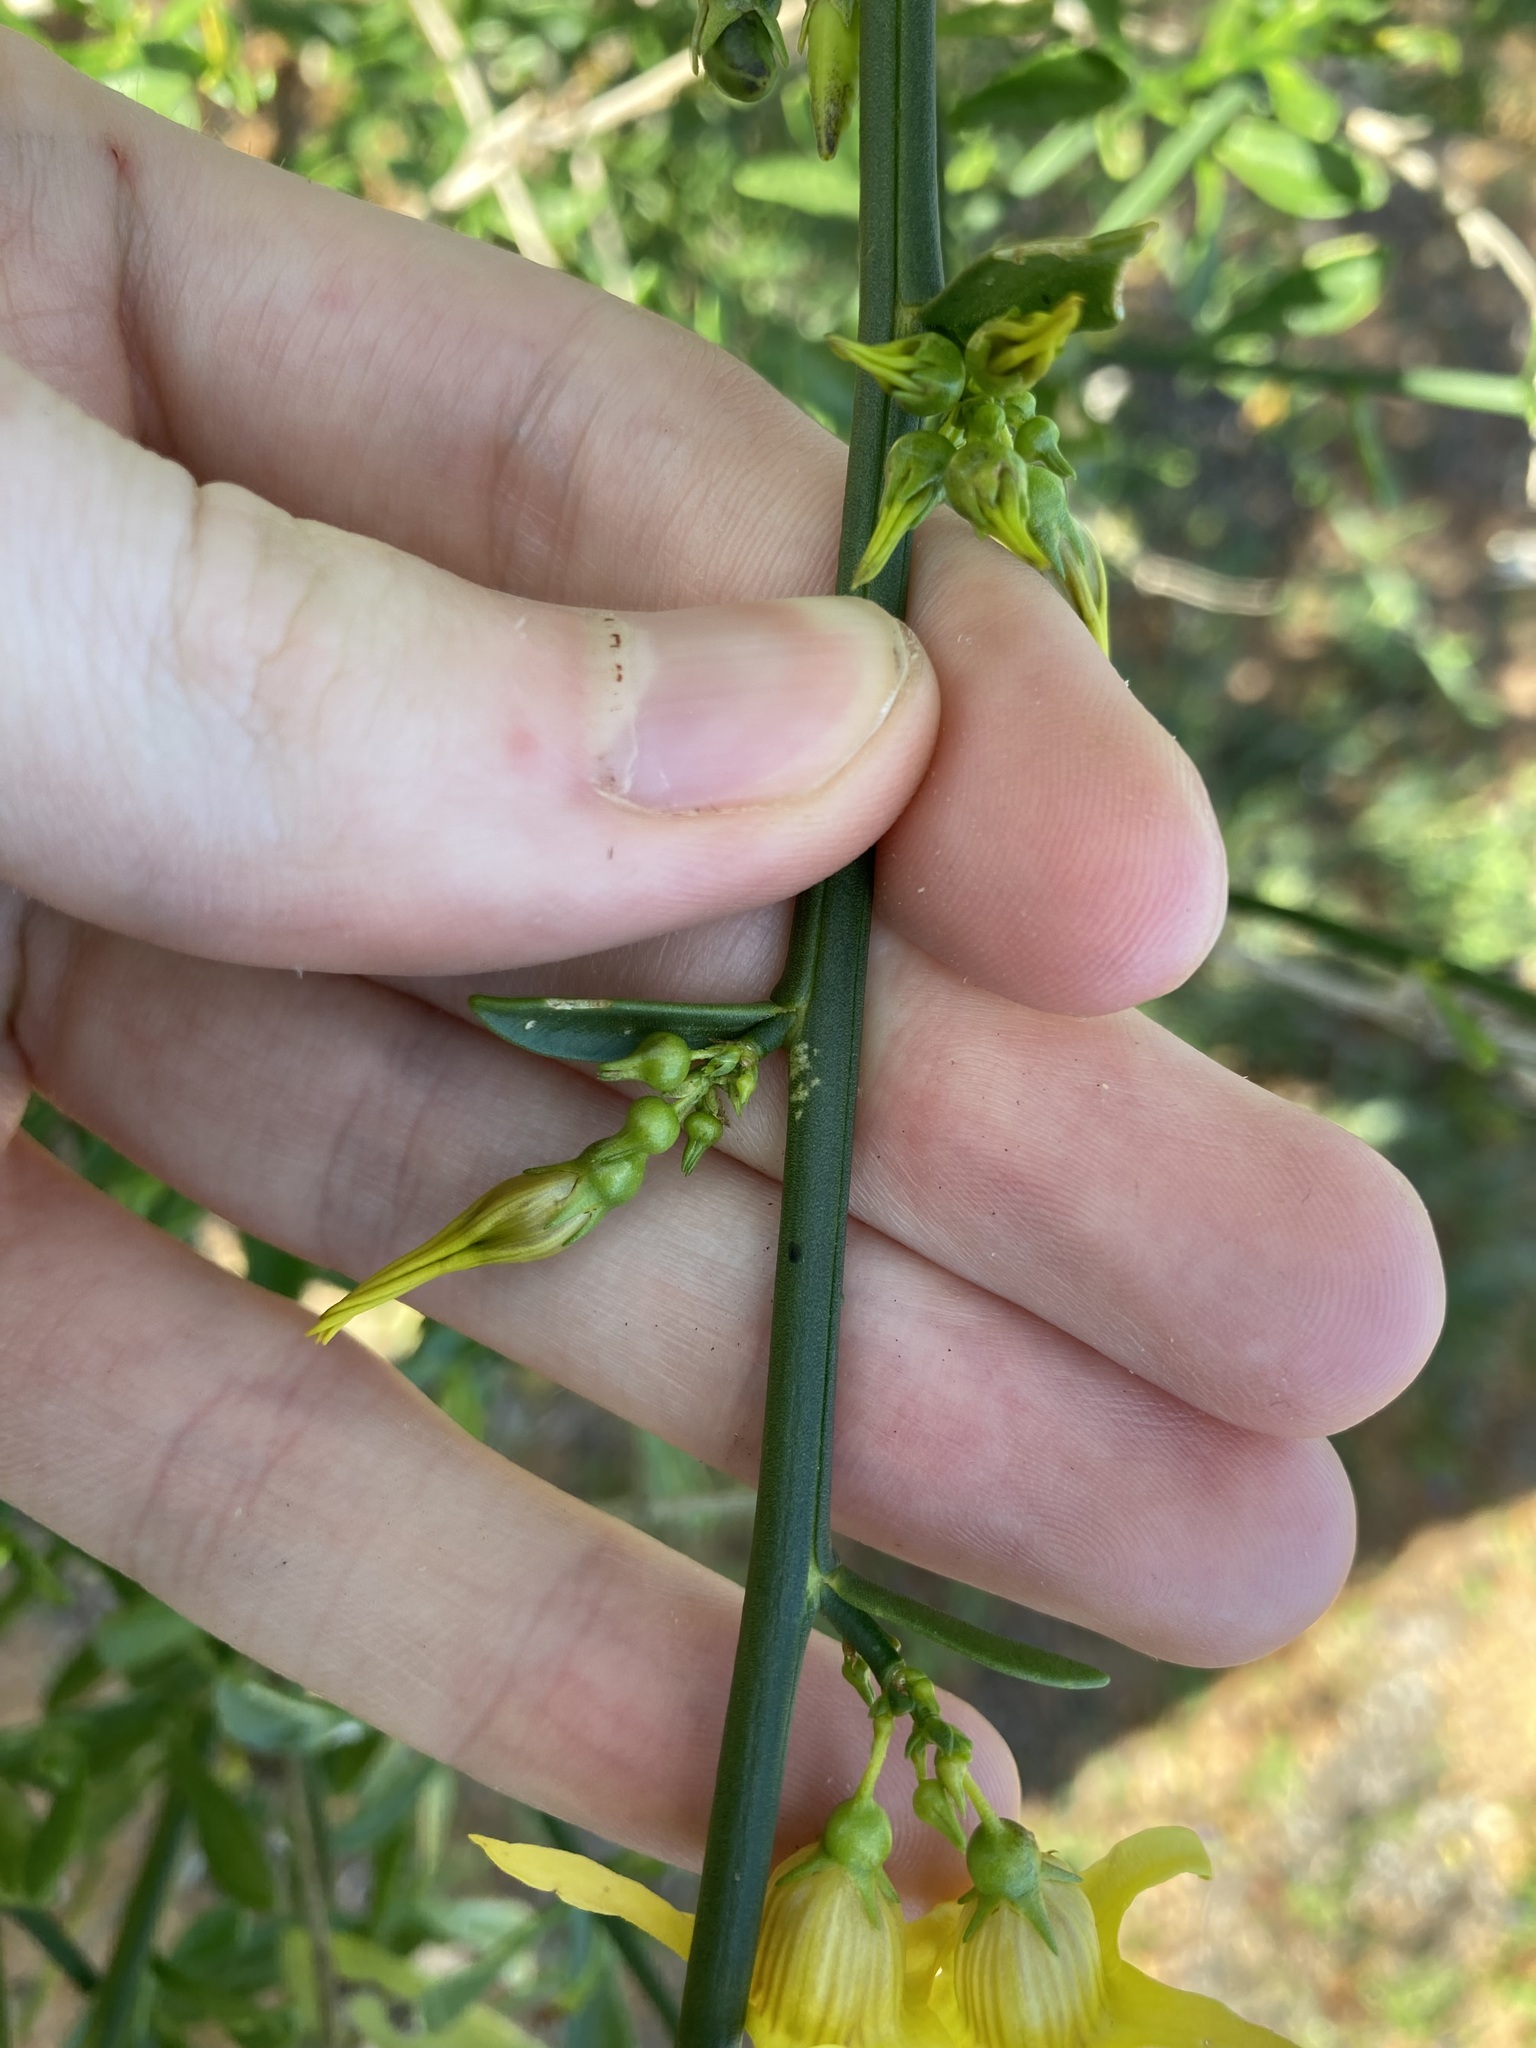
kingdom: Plantae
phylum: Tracheophyta
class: Magnoliopsida
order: Solanales
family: Solanaceae
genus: Anthocercis
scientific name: Anthocercis ilicifolia
